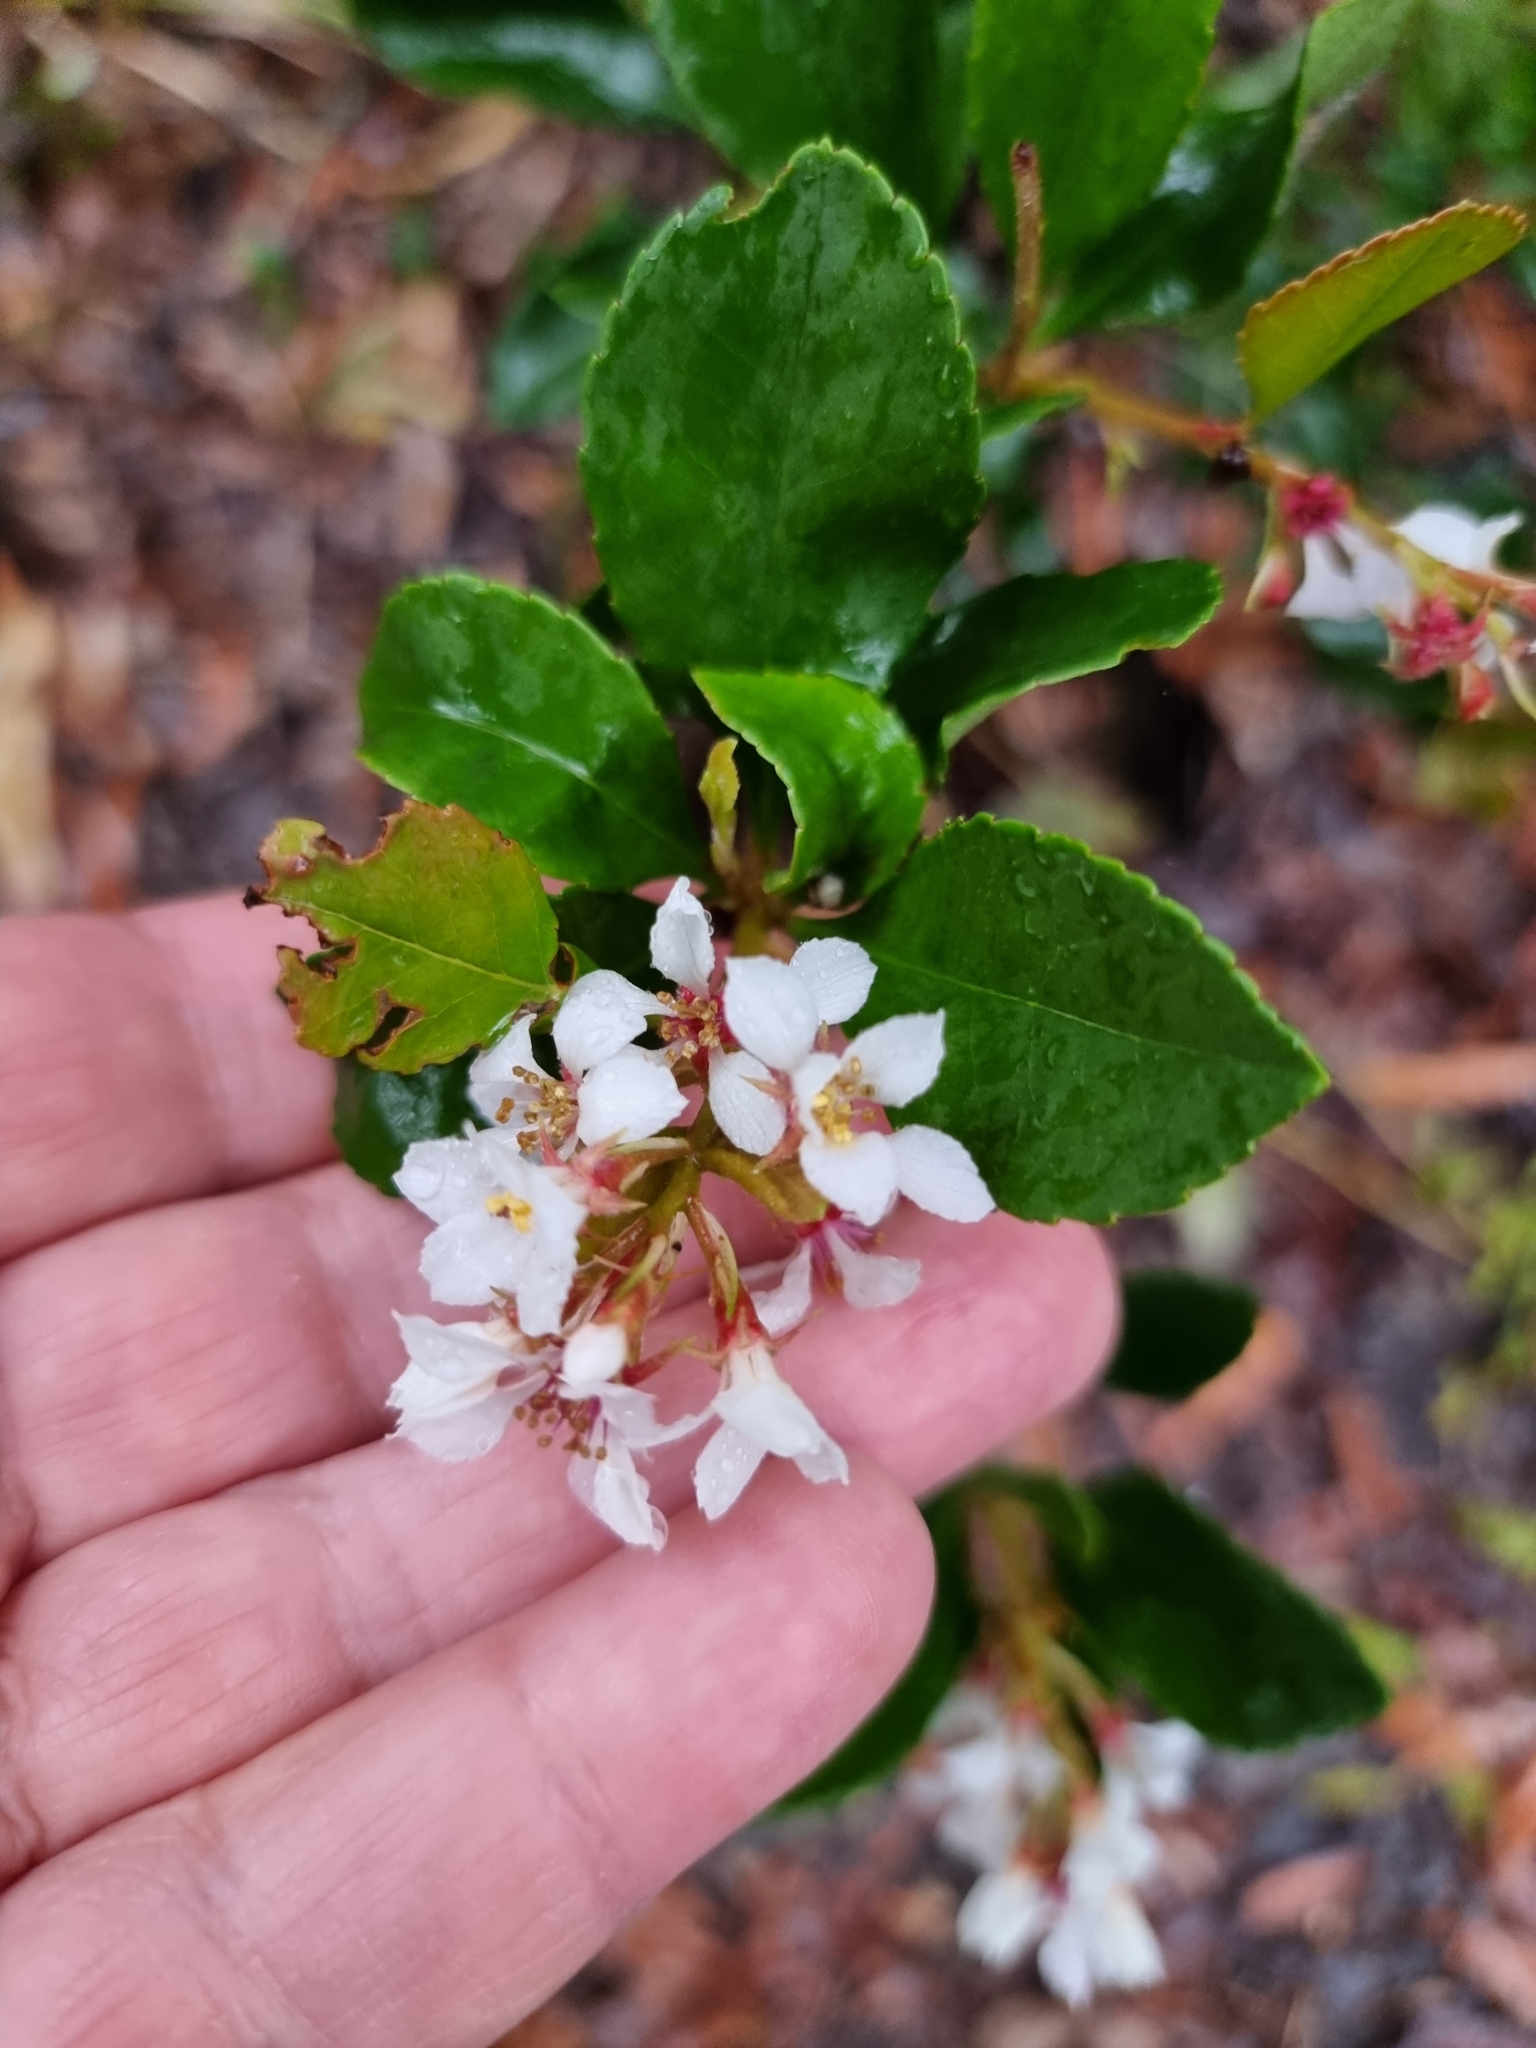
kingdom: Plantae
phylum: Tracheophyta
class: Magnoliopsida
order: Rosales
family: Rosaceae
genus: Rhaphiolepis
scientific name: Rhaphiolepis indica
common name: India-hawthorn
